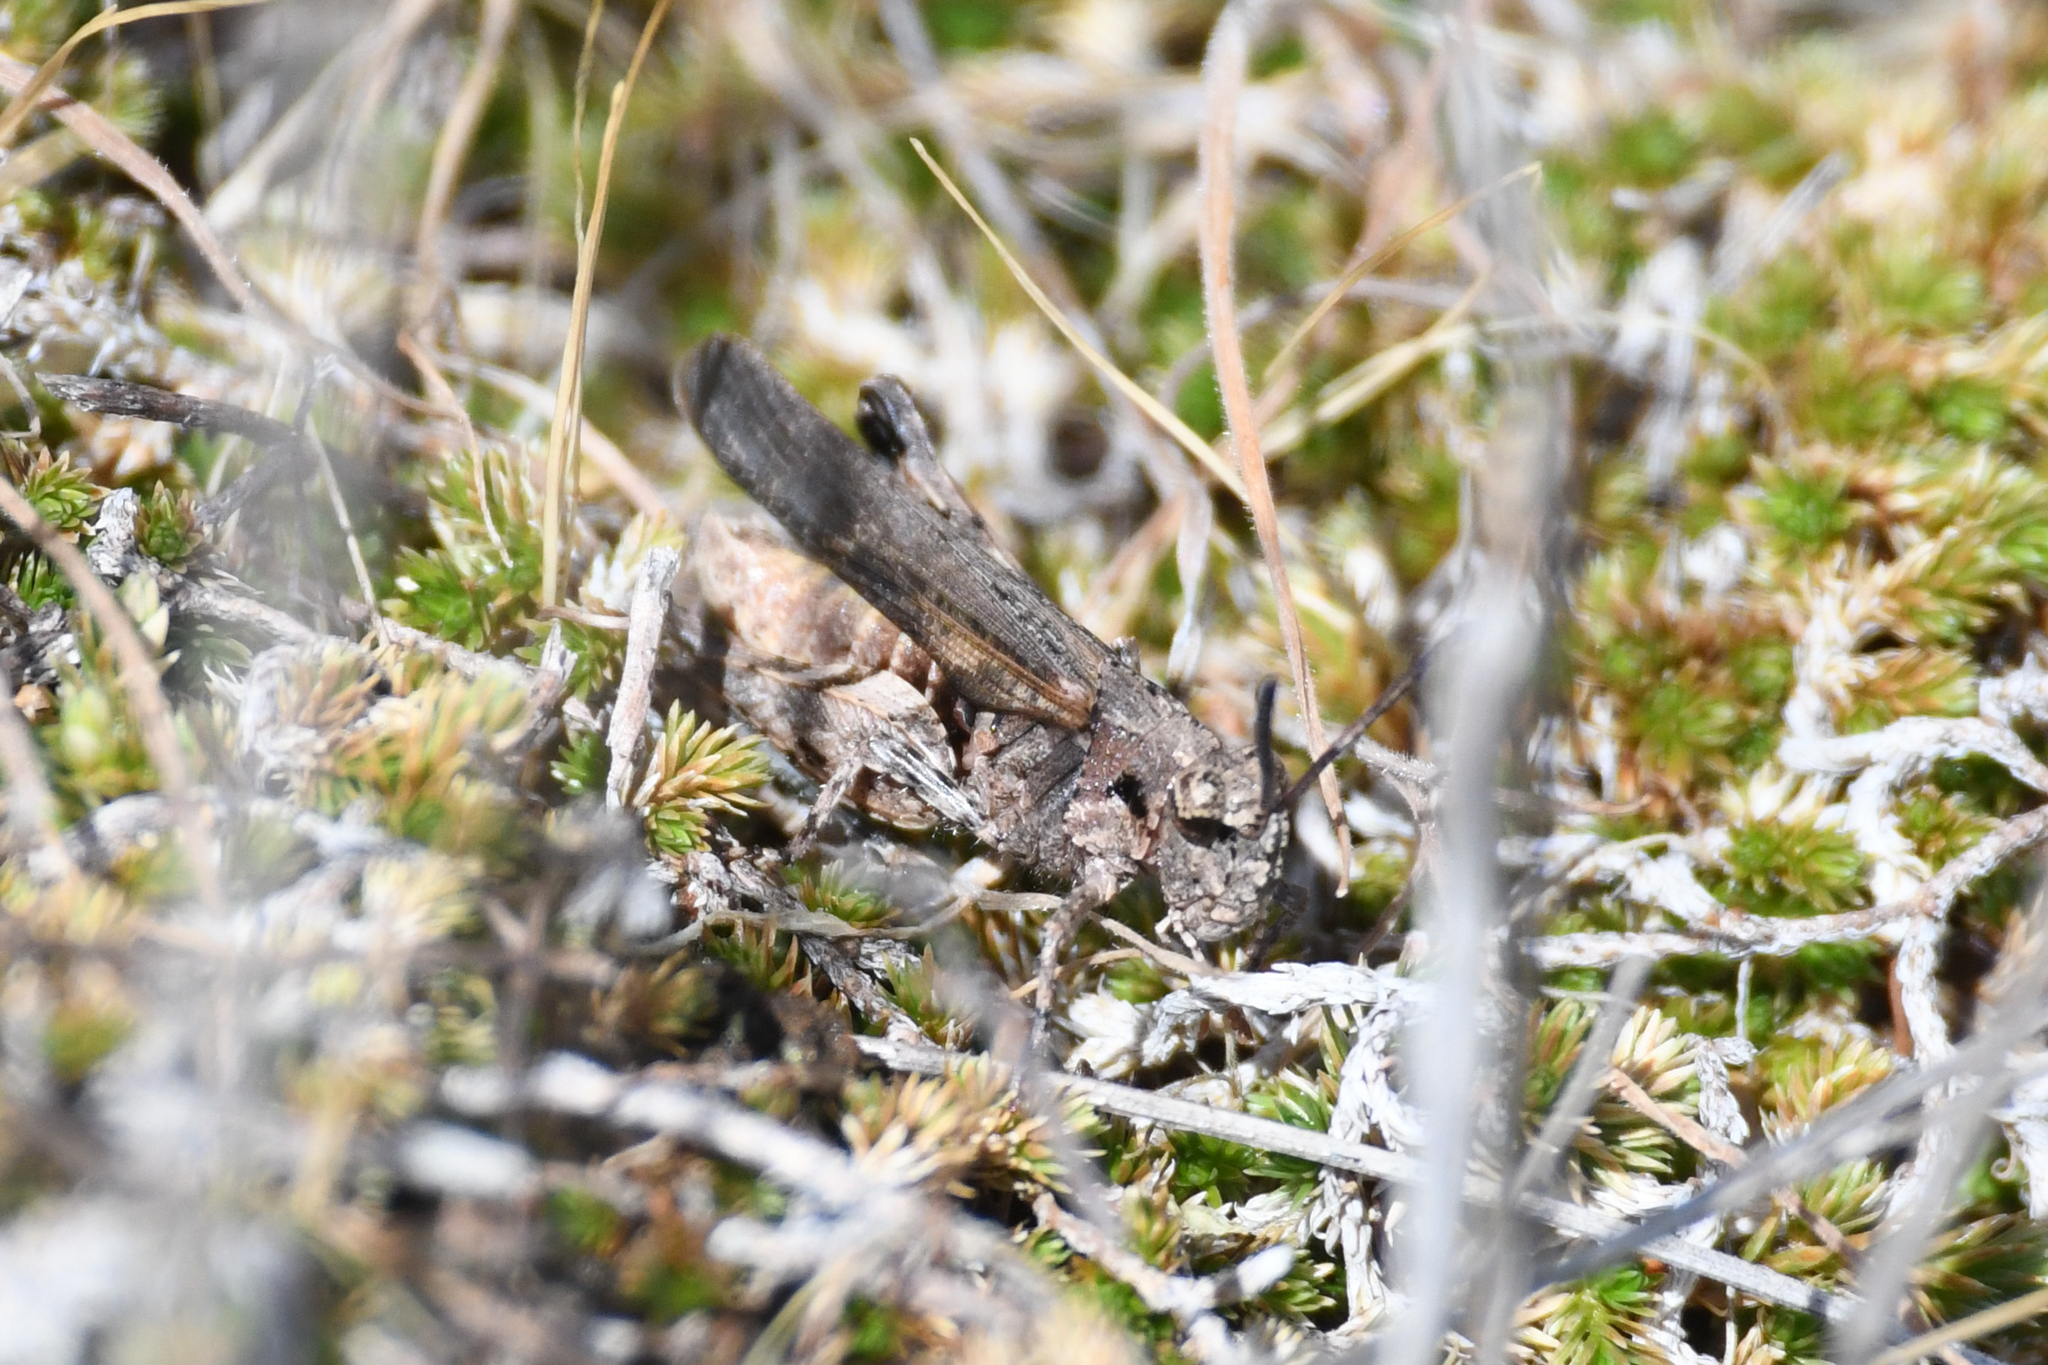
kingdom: Animalia
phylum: Arthropoda
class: Insecta
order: Orthoptera
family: Acrididae
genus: Chimarocephala
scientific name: Chimarocephala pacifica
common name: Painted meadow grasshopper
